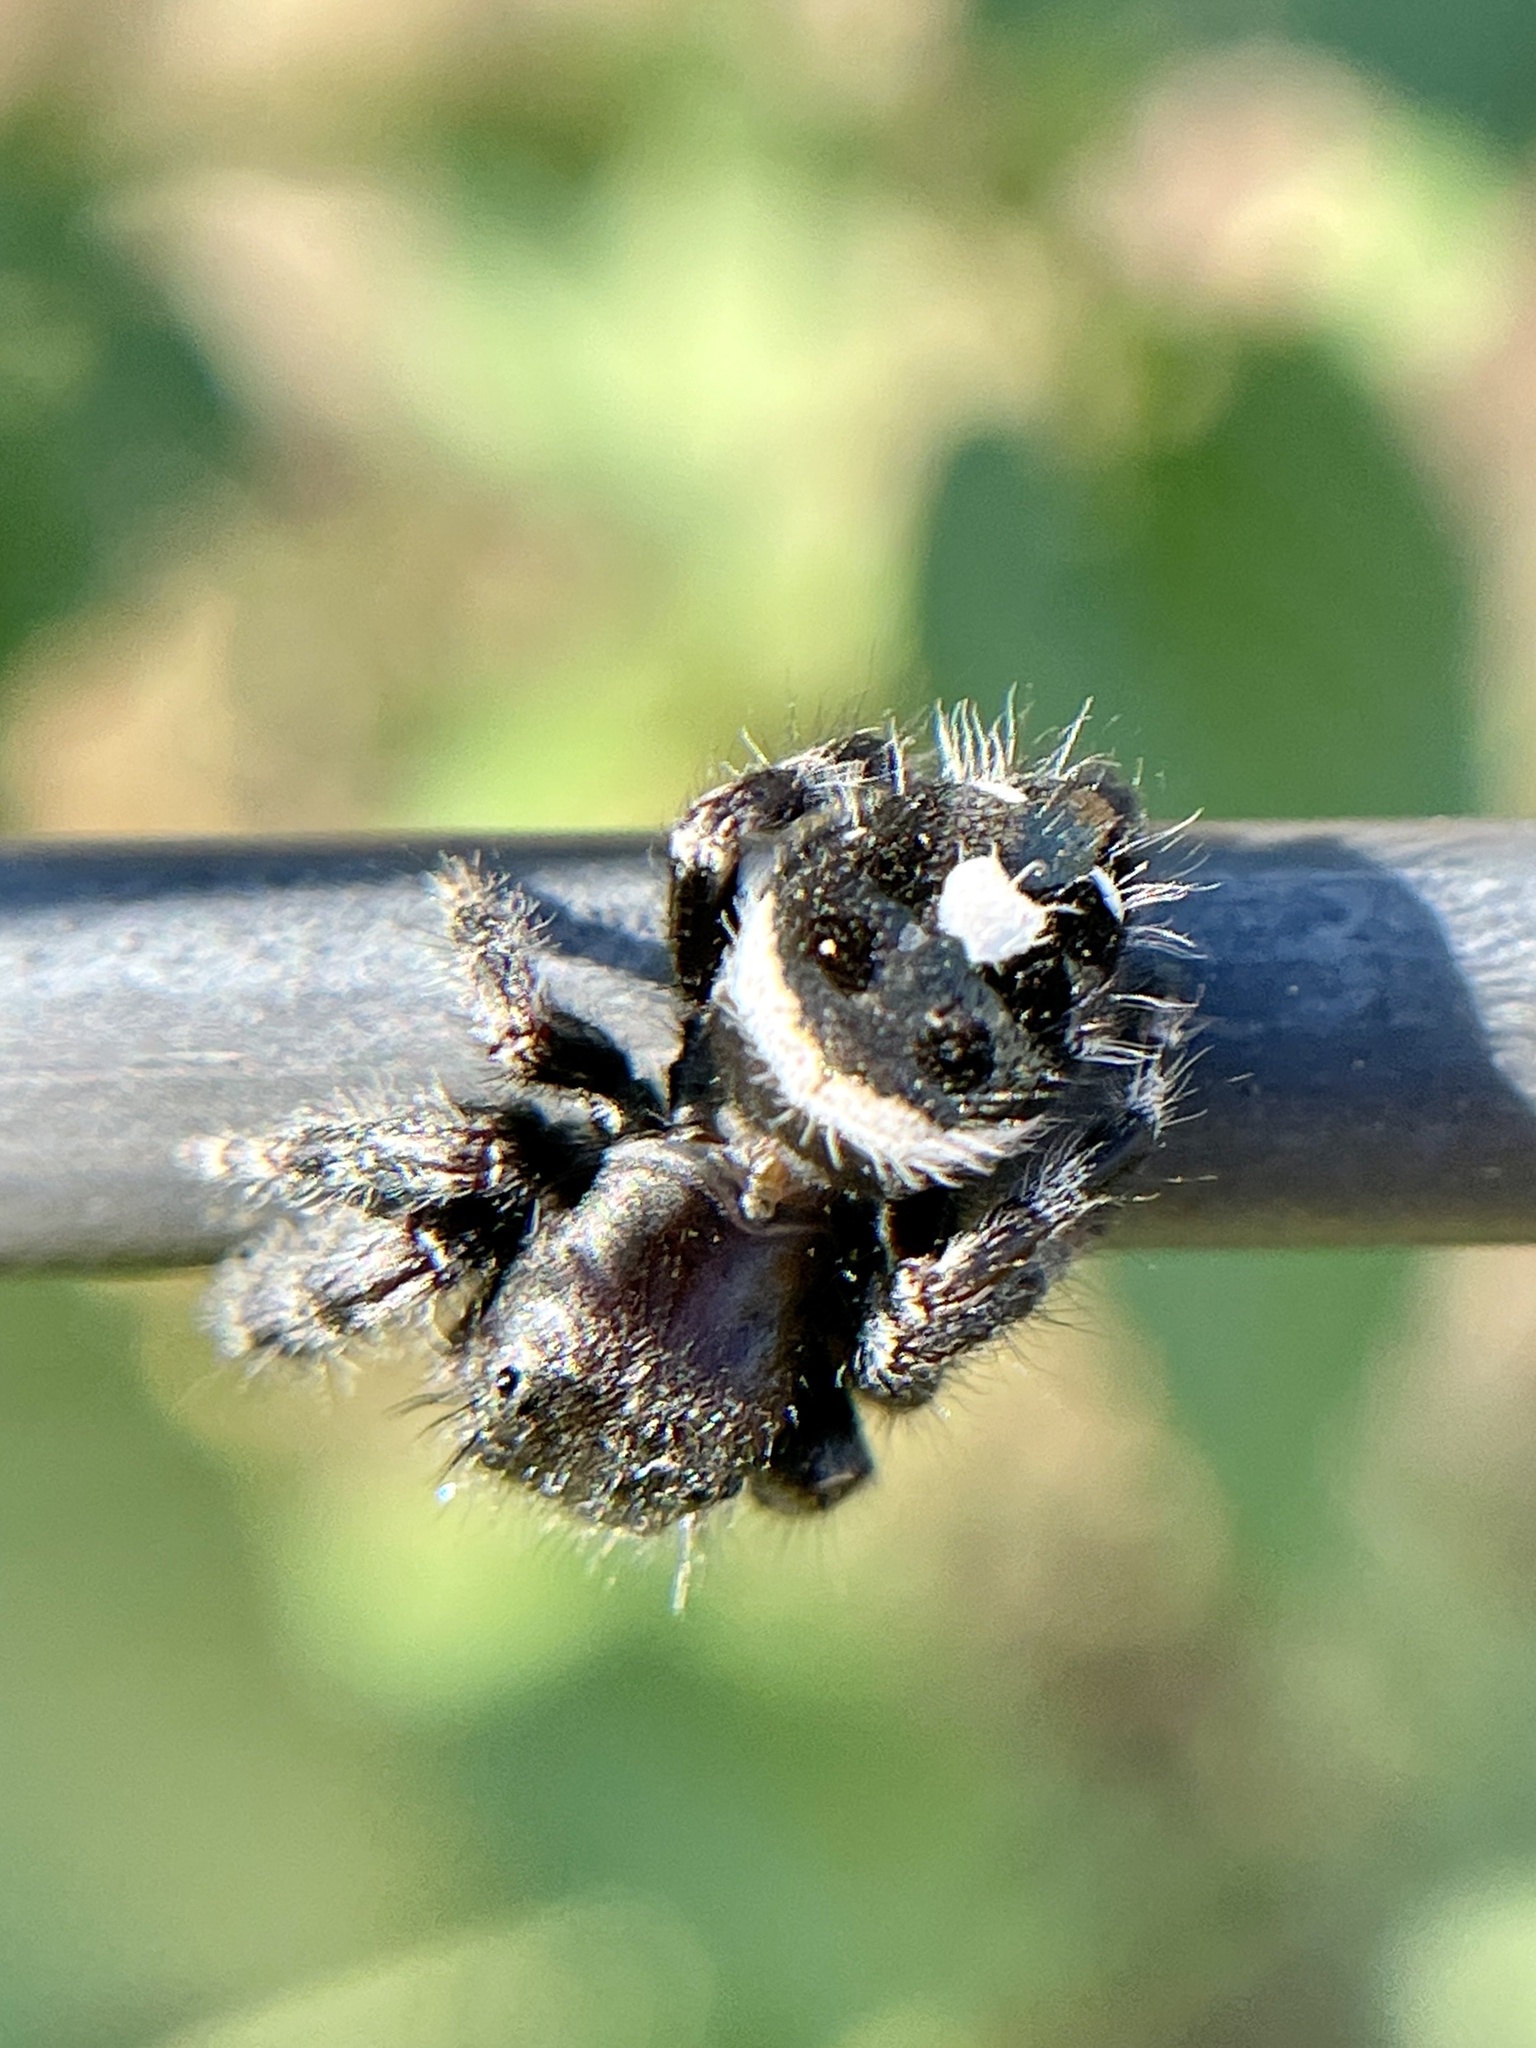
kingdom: Animalia
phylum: Arthropoda
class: Arachnida
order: Araneae
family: Salticidae
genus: Phidippus
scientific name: Phidippus audax
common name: Bold jumper
